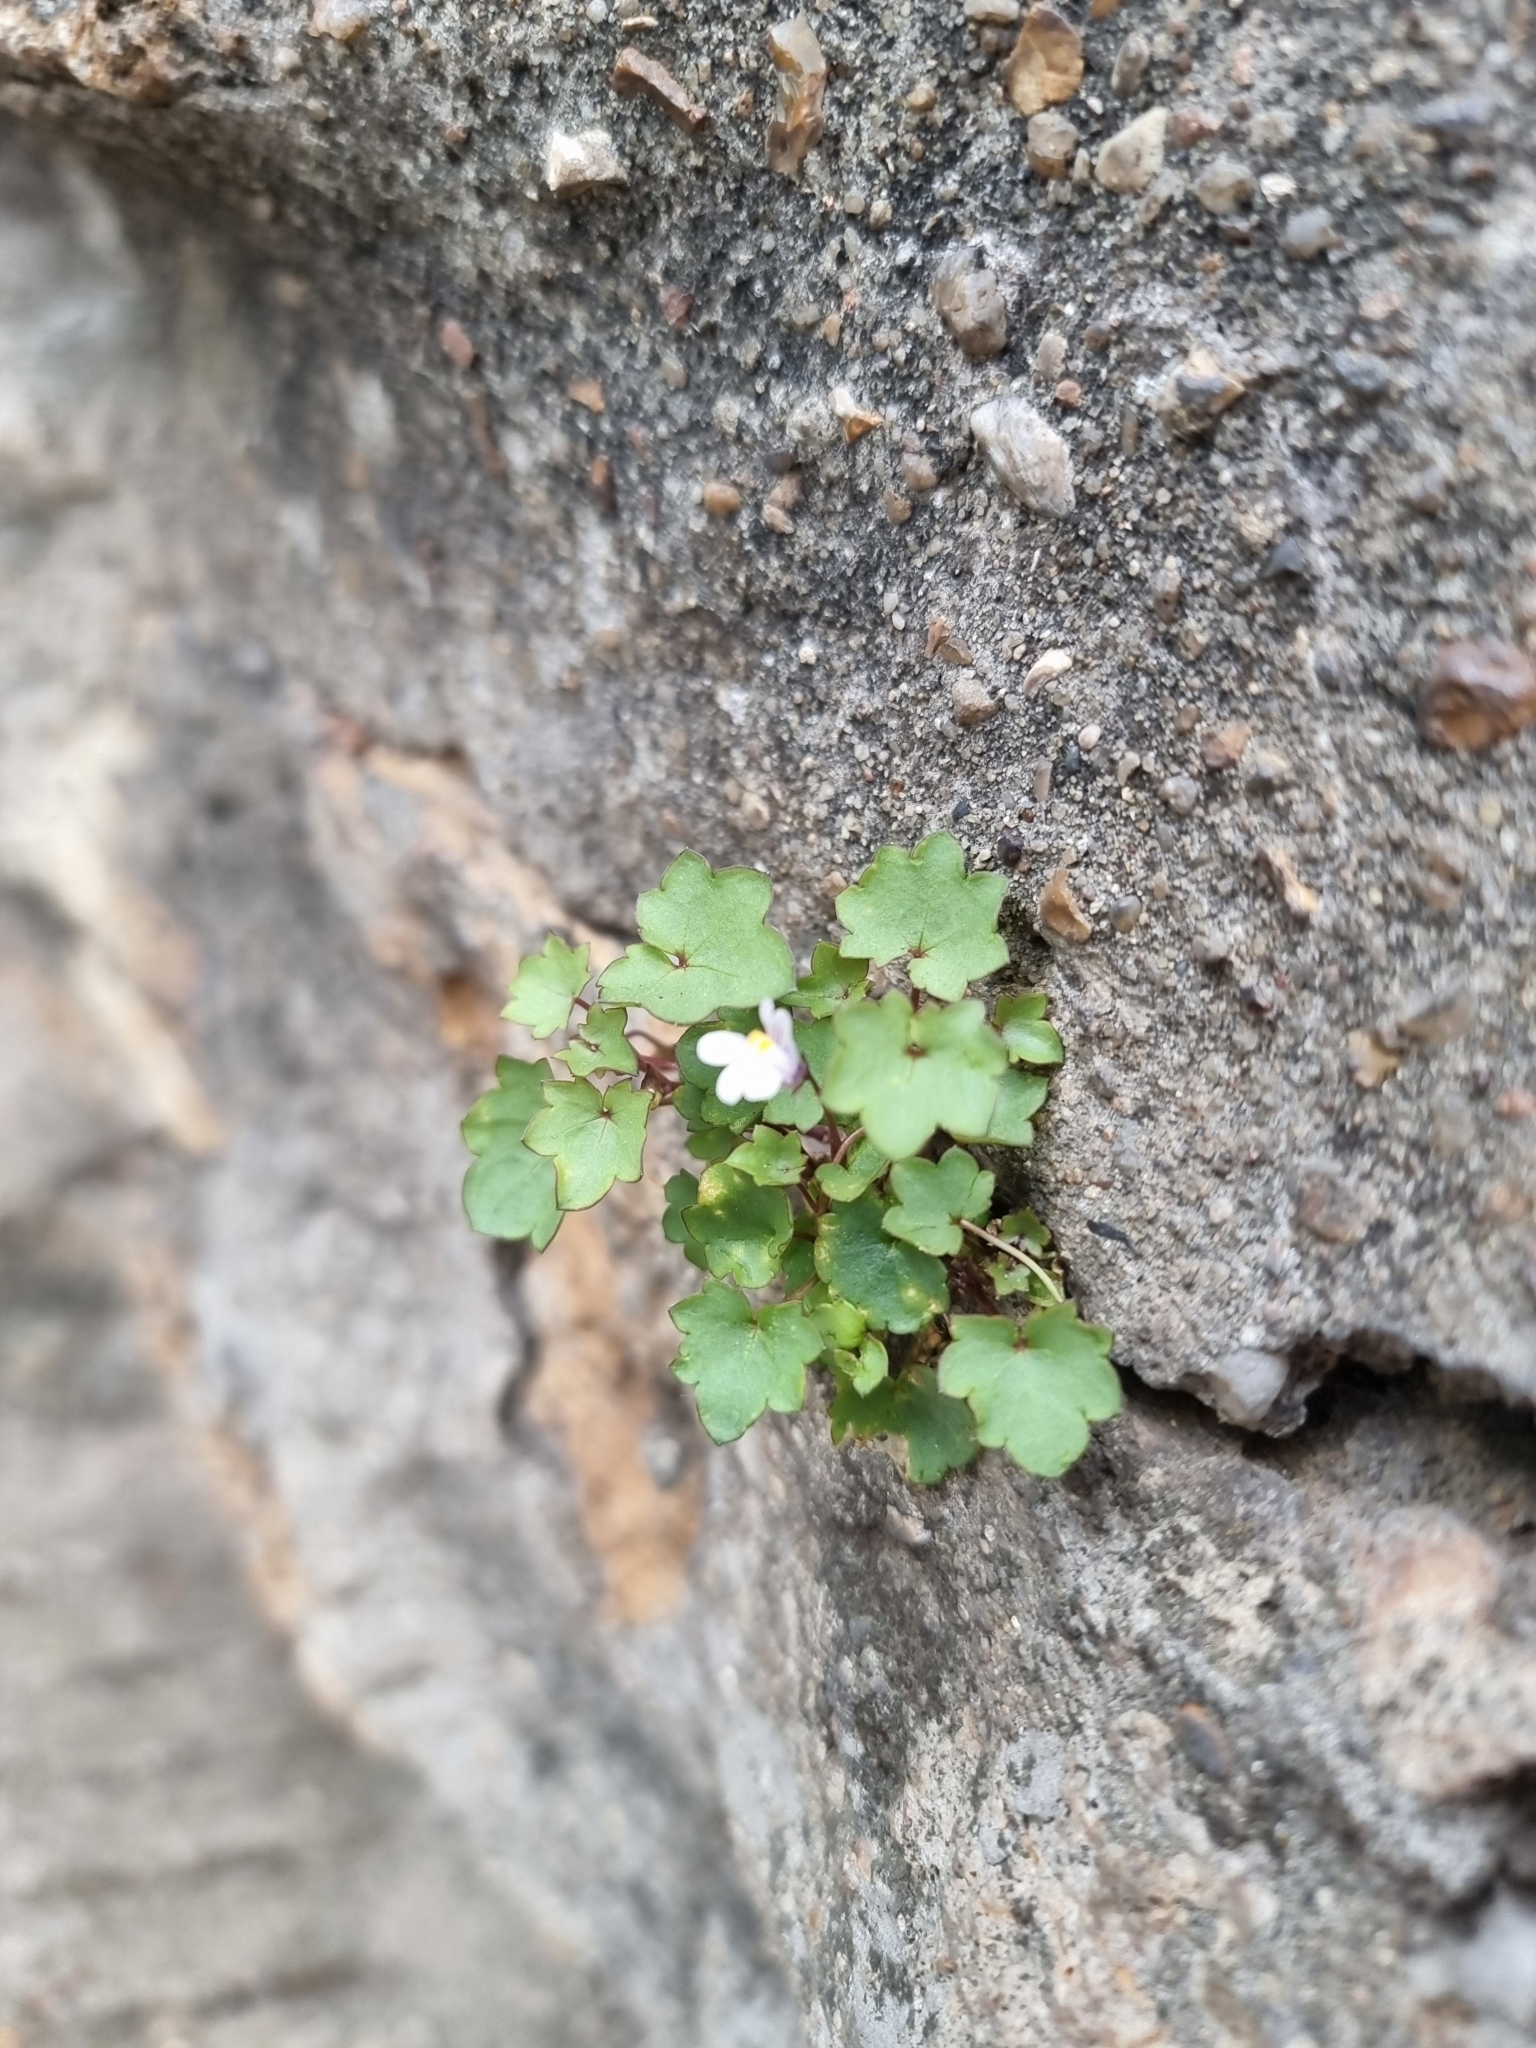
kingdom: Plantae
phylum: Tracheophyta
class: Magnoliopsida
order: Lamiales
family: Plantaginaceae
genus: Cymbalaria
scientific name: Cymbalaria muralis
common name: Ivy-leaved toadflax
